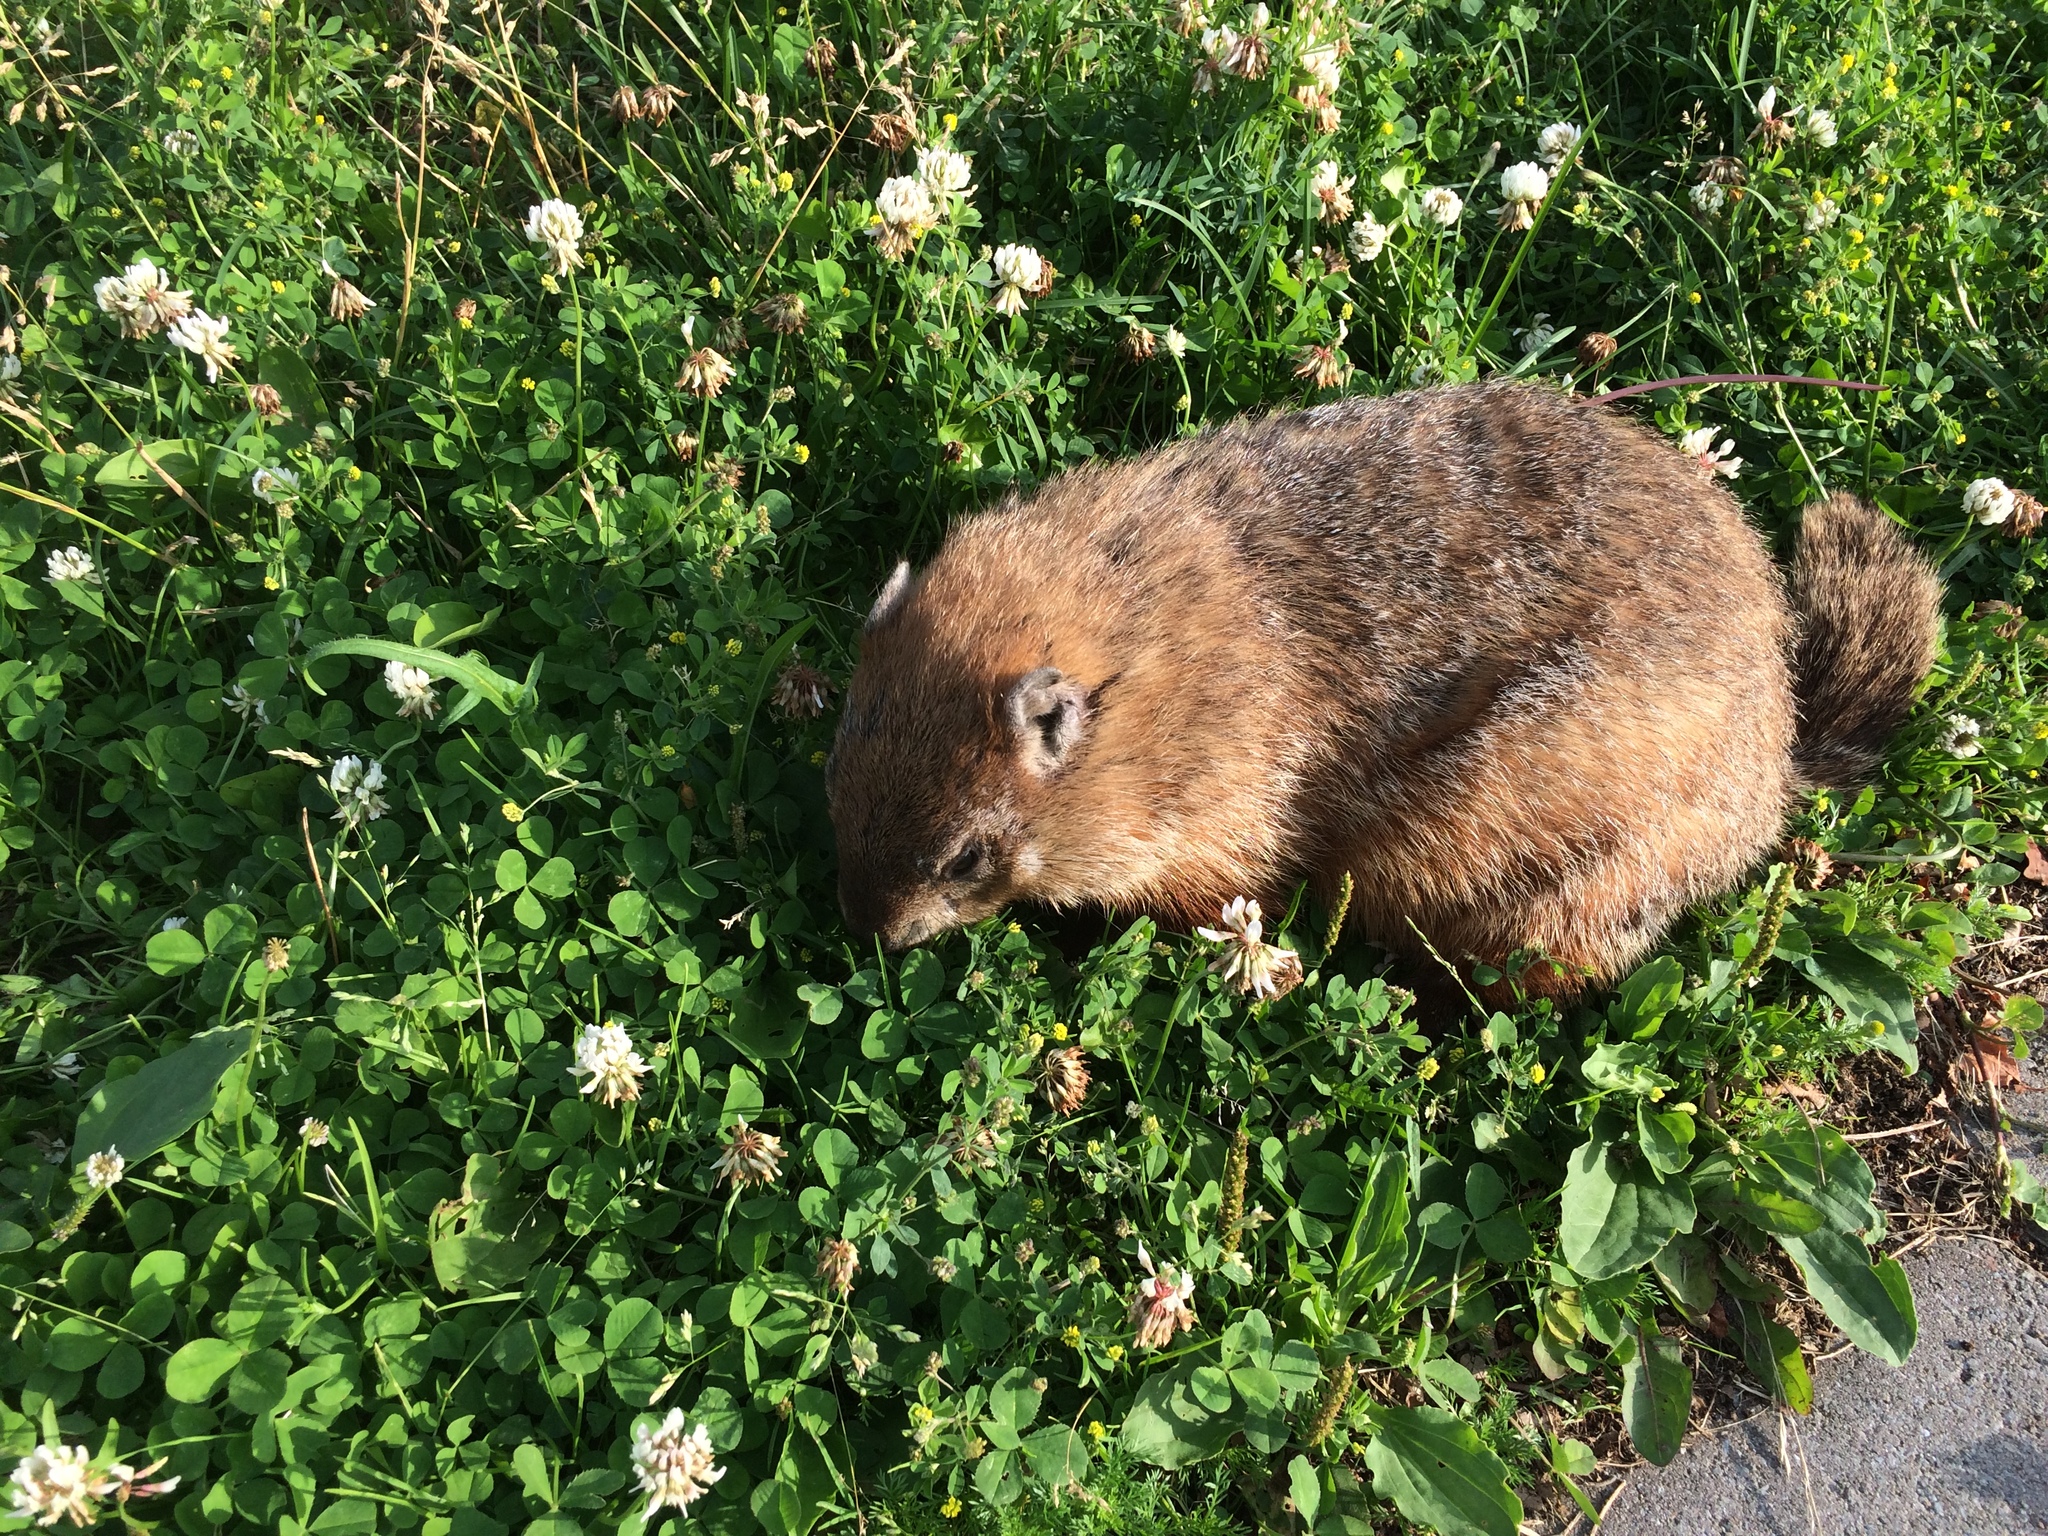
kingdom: Animalia
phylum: Chordata
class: Mammalia
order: Rodentia
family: Sciuridae
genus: Marmota
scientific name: Marmota monax
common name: Groundhog
